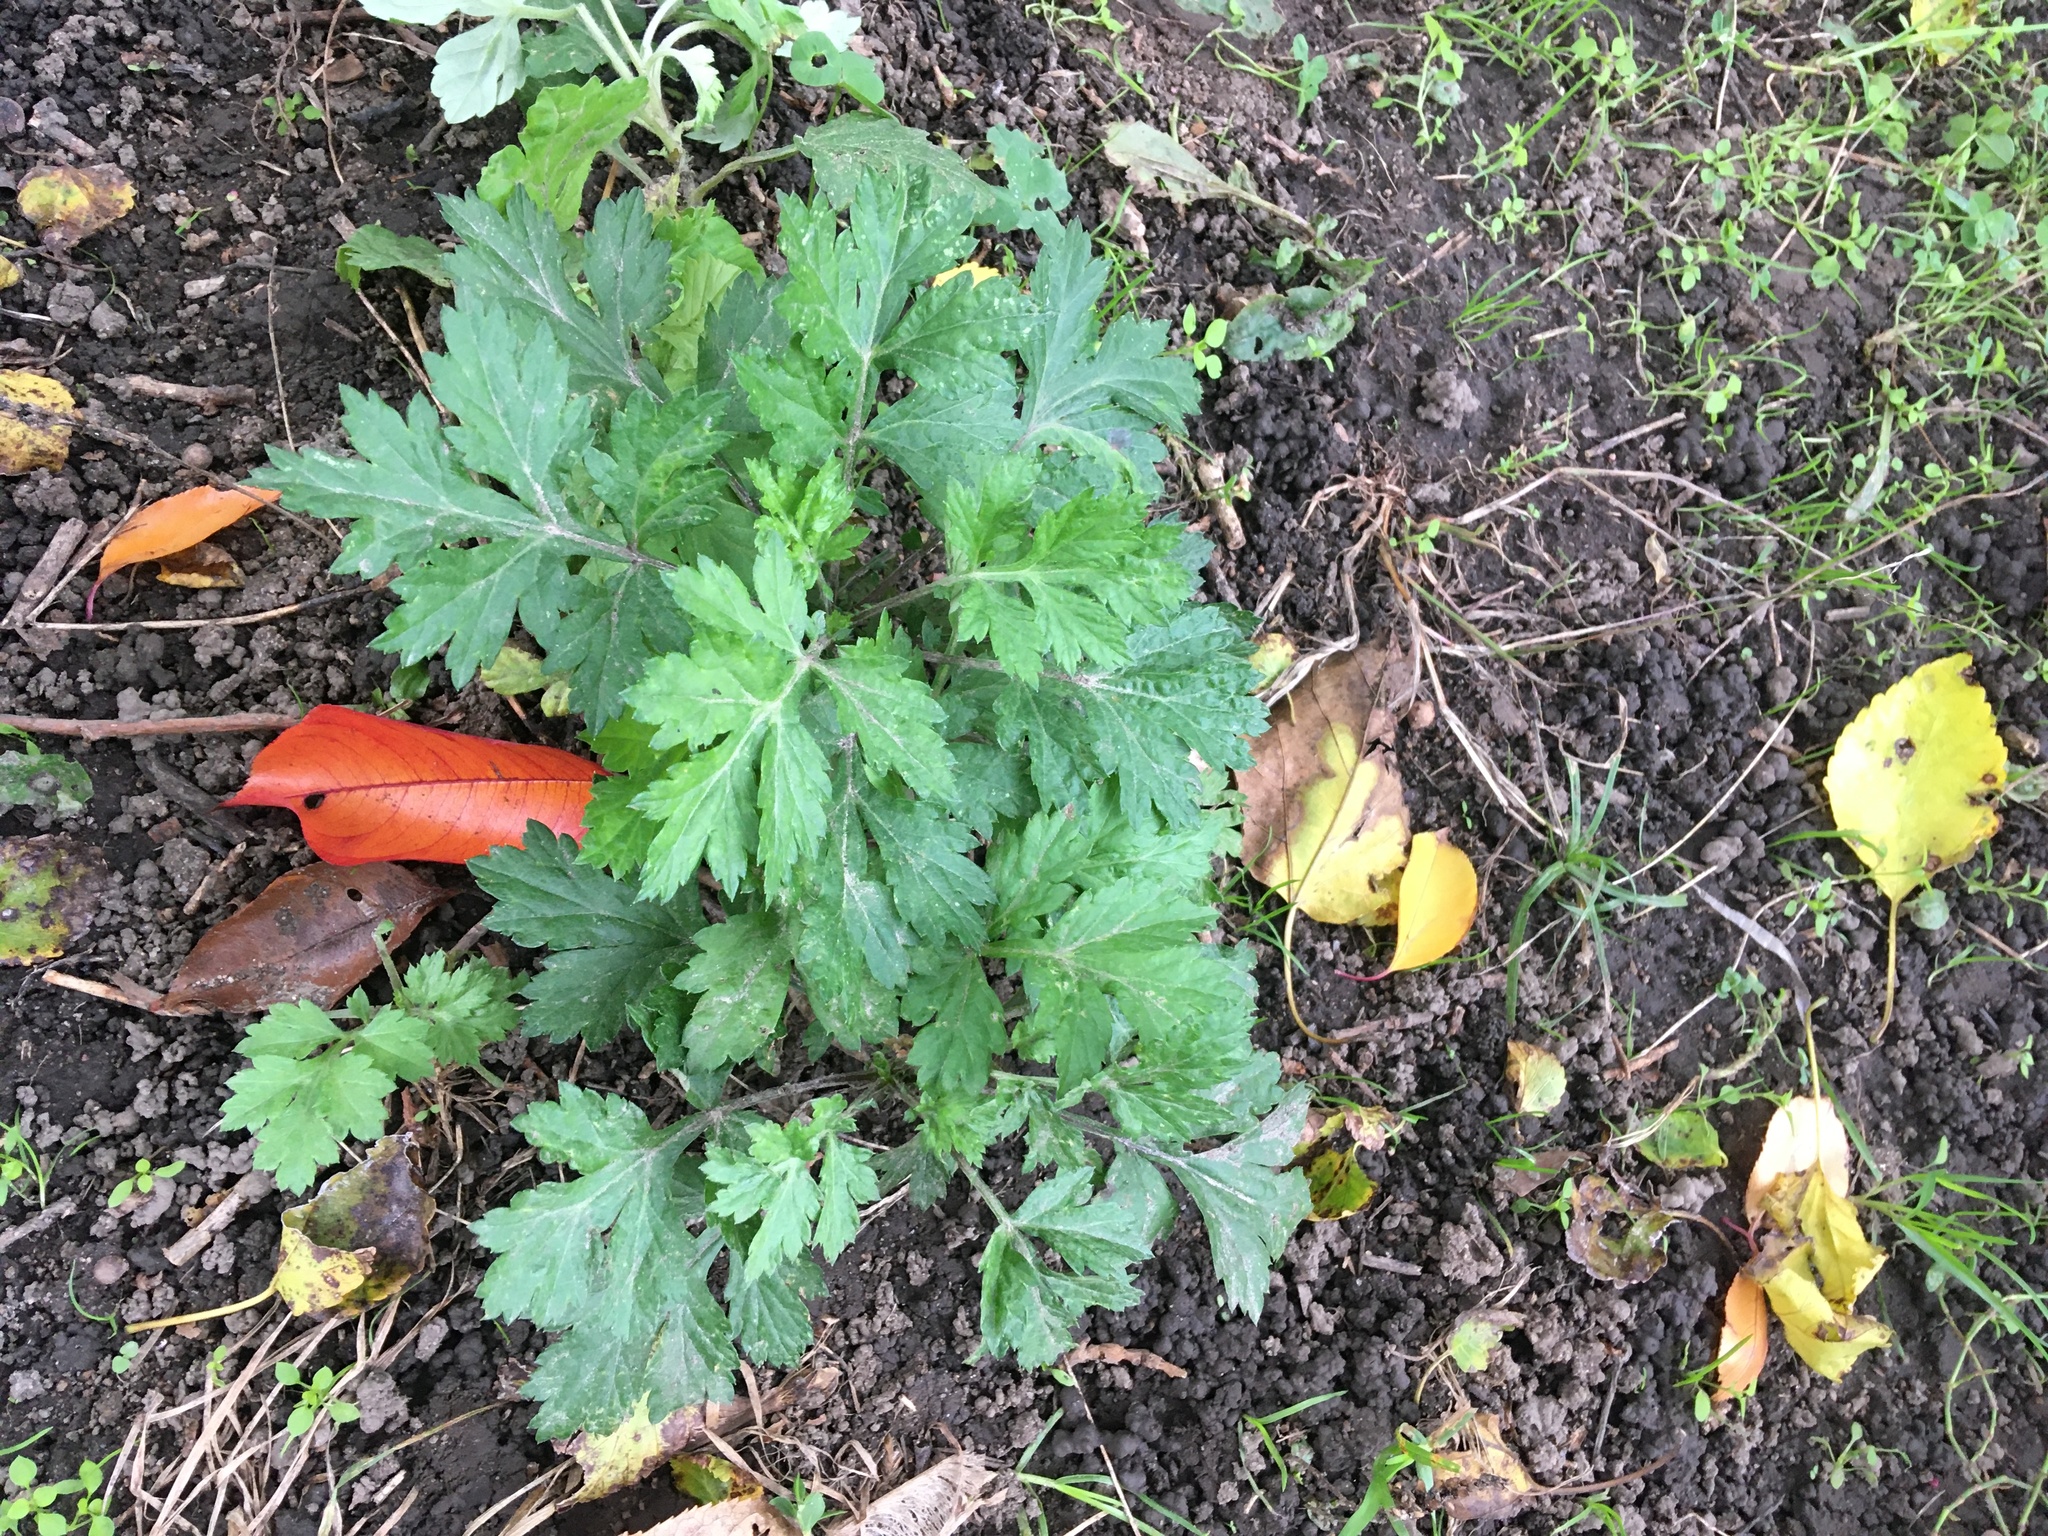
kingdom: Plantae
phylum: Tracheophyta
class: Magnoliopsida
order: Asterales
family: Asteraceae
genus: Artemisia
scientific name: Artemisia vulgaris
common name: Mugwort
